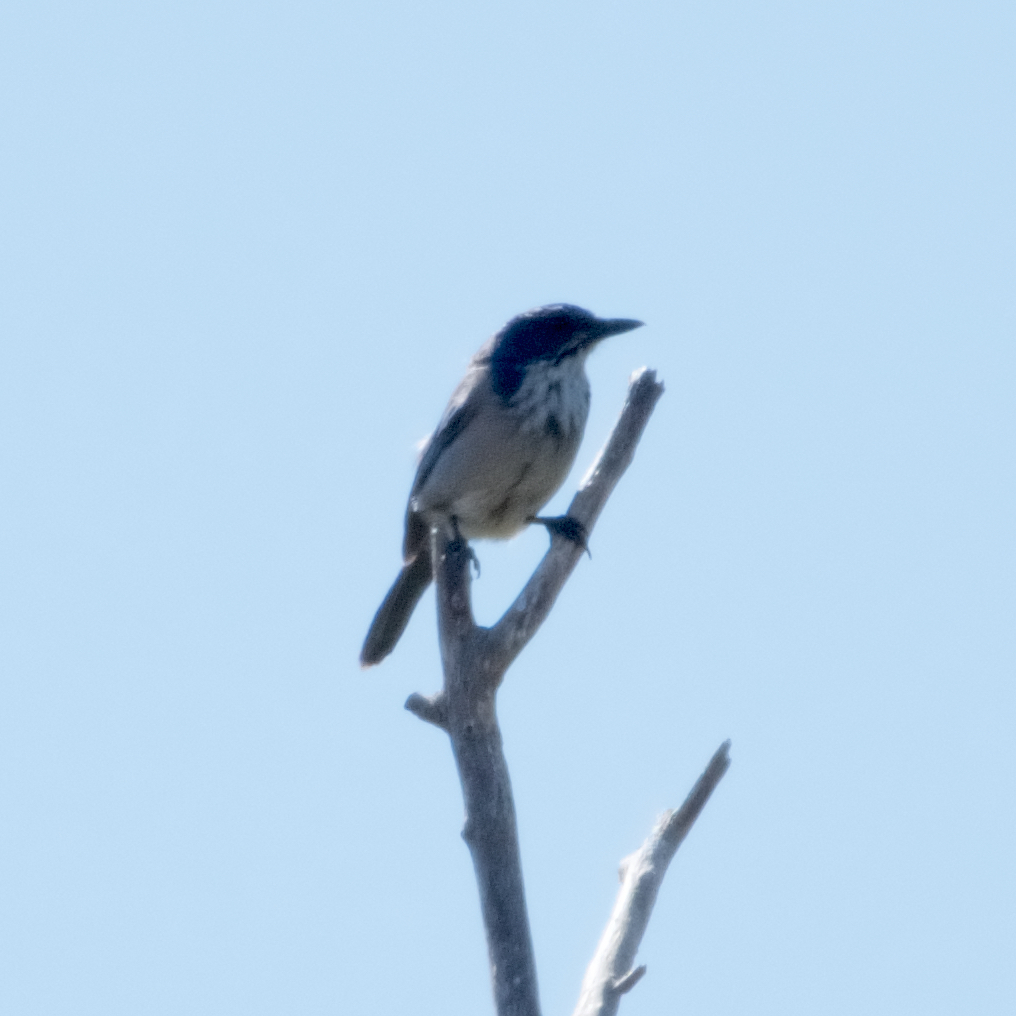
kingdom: Animalia
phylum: Chordata
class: Aves
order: Passeriformes
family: Corvidae
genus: Aphelocoma
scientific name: Aphelocoma californica
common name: California scrub-jay
